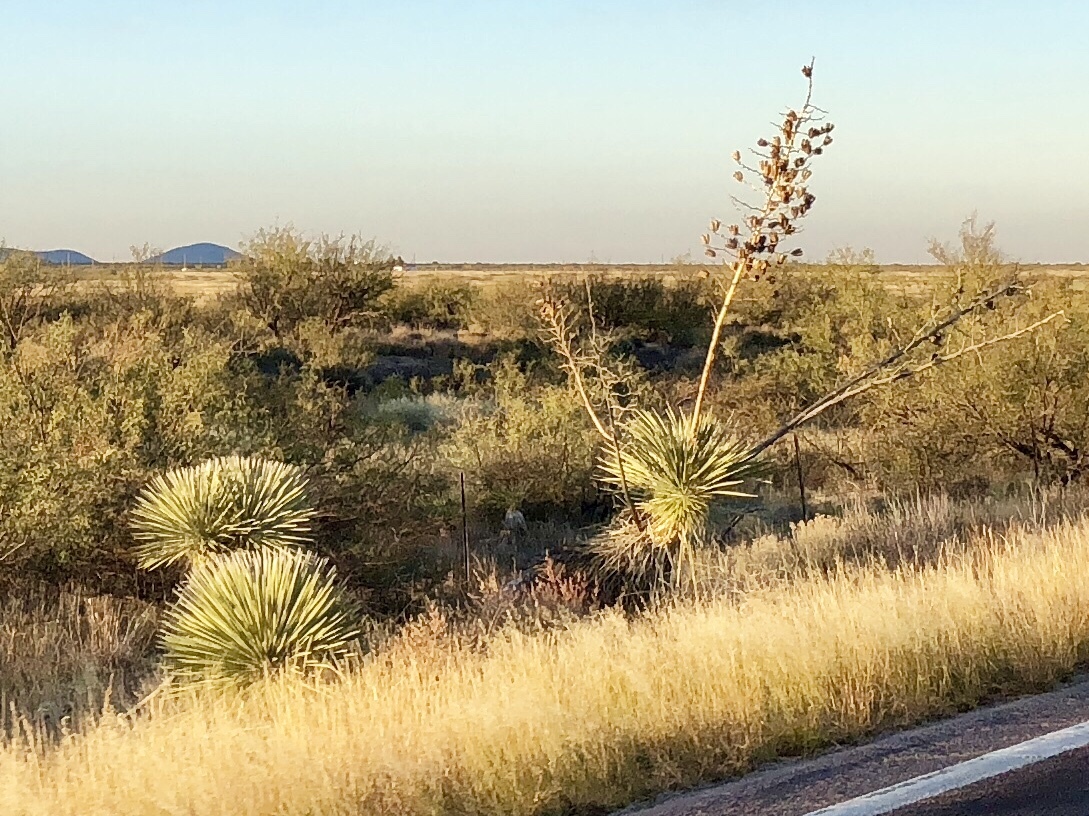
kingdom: Plantae
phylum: Tracheophyta
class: Liliopsida
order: Asparagales
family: Asparagaceae
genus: Yucca
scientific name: Yucca elata
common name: Palmella
